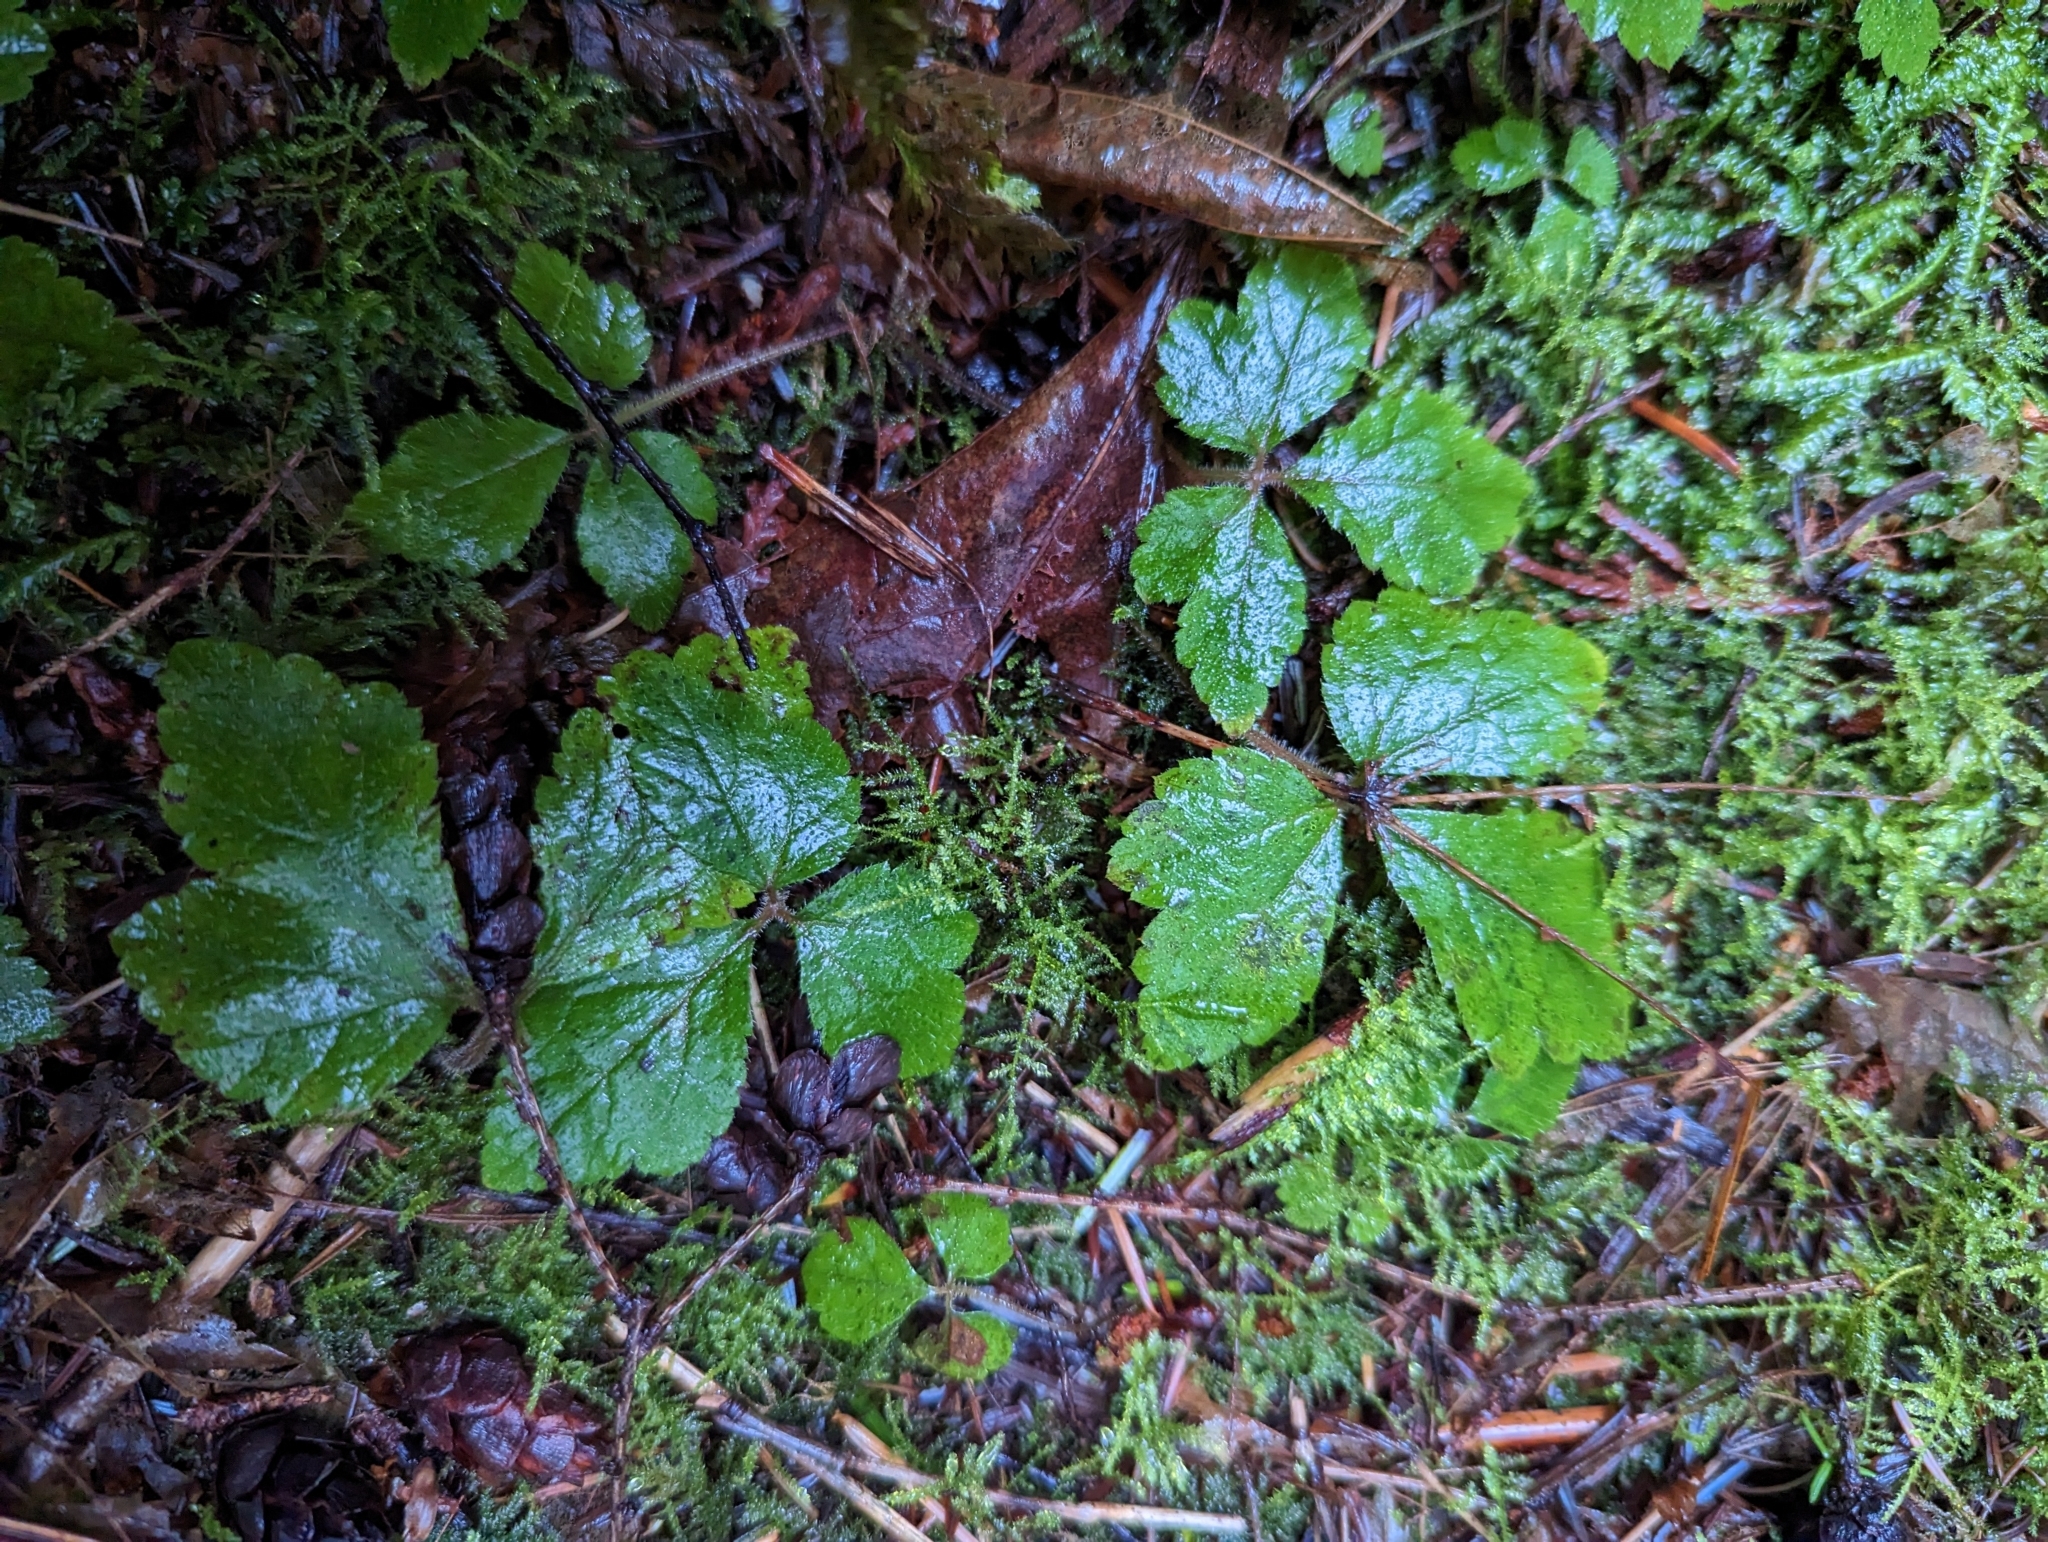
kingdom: Plantae
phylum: Tracheophyta
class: Magnoliopsida
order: Saxifragales
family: Saxifragaceae
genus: Tiarella
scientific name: Tiarella trifoliata
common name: Sugar-scoop
